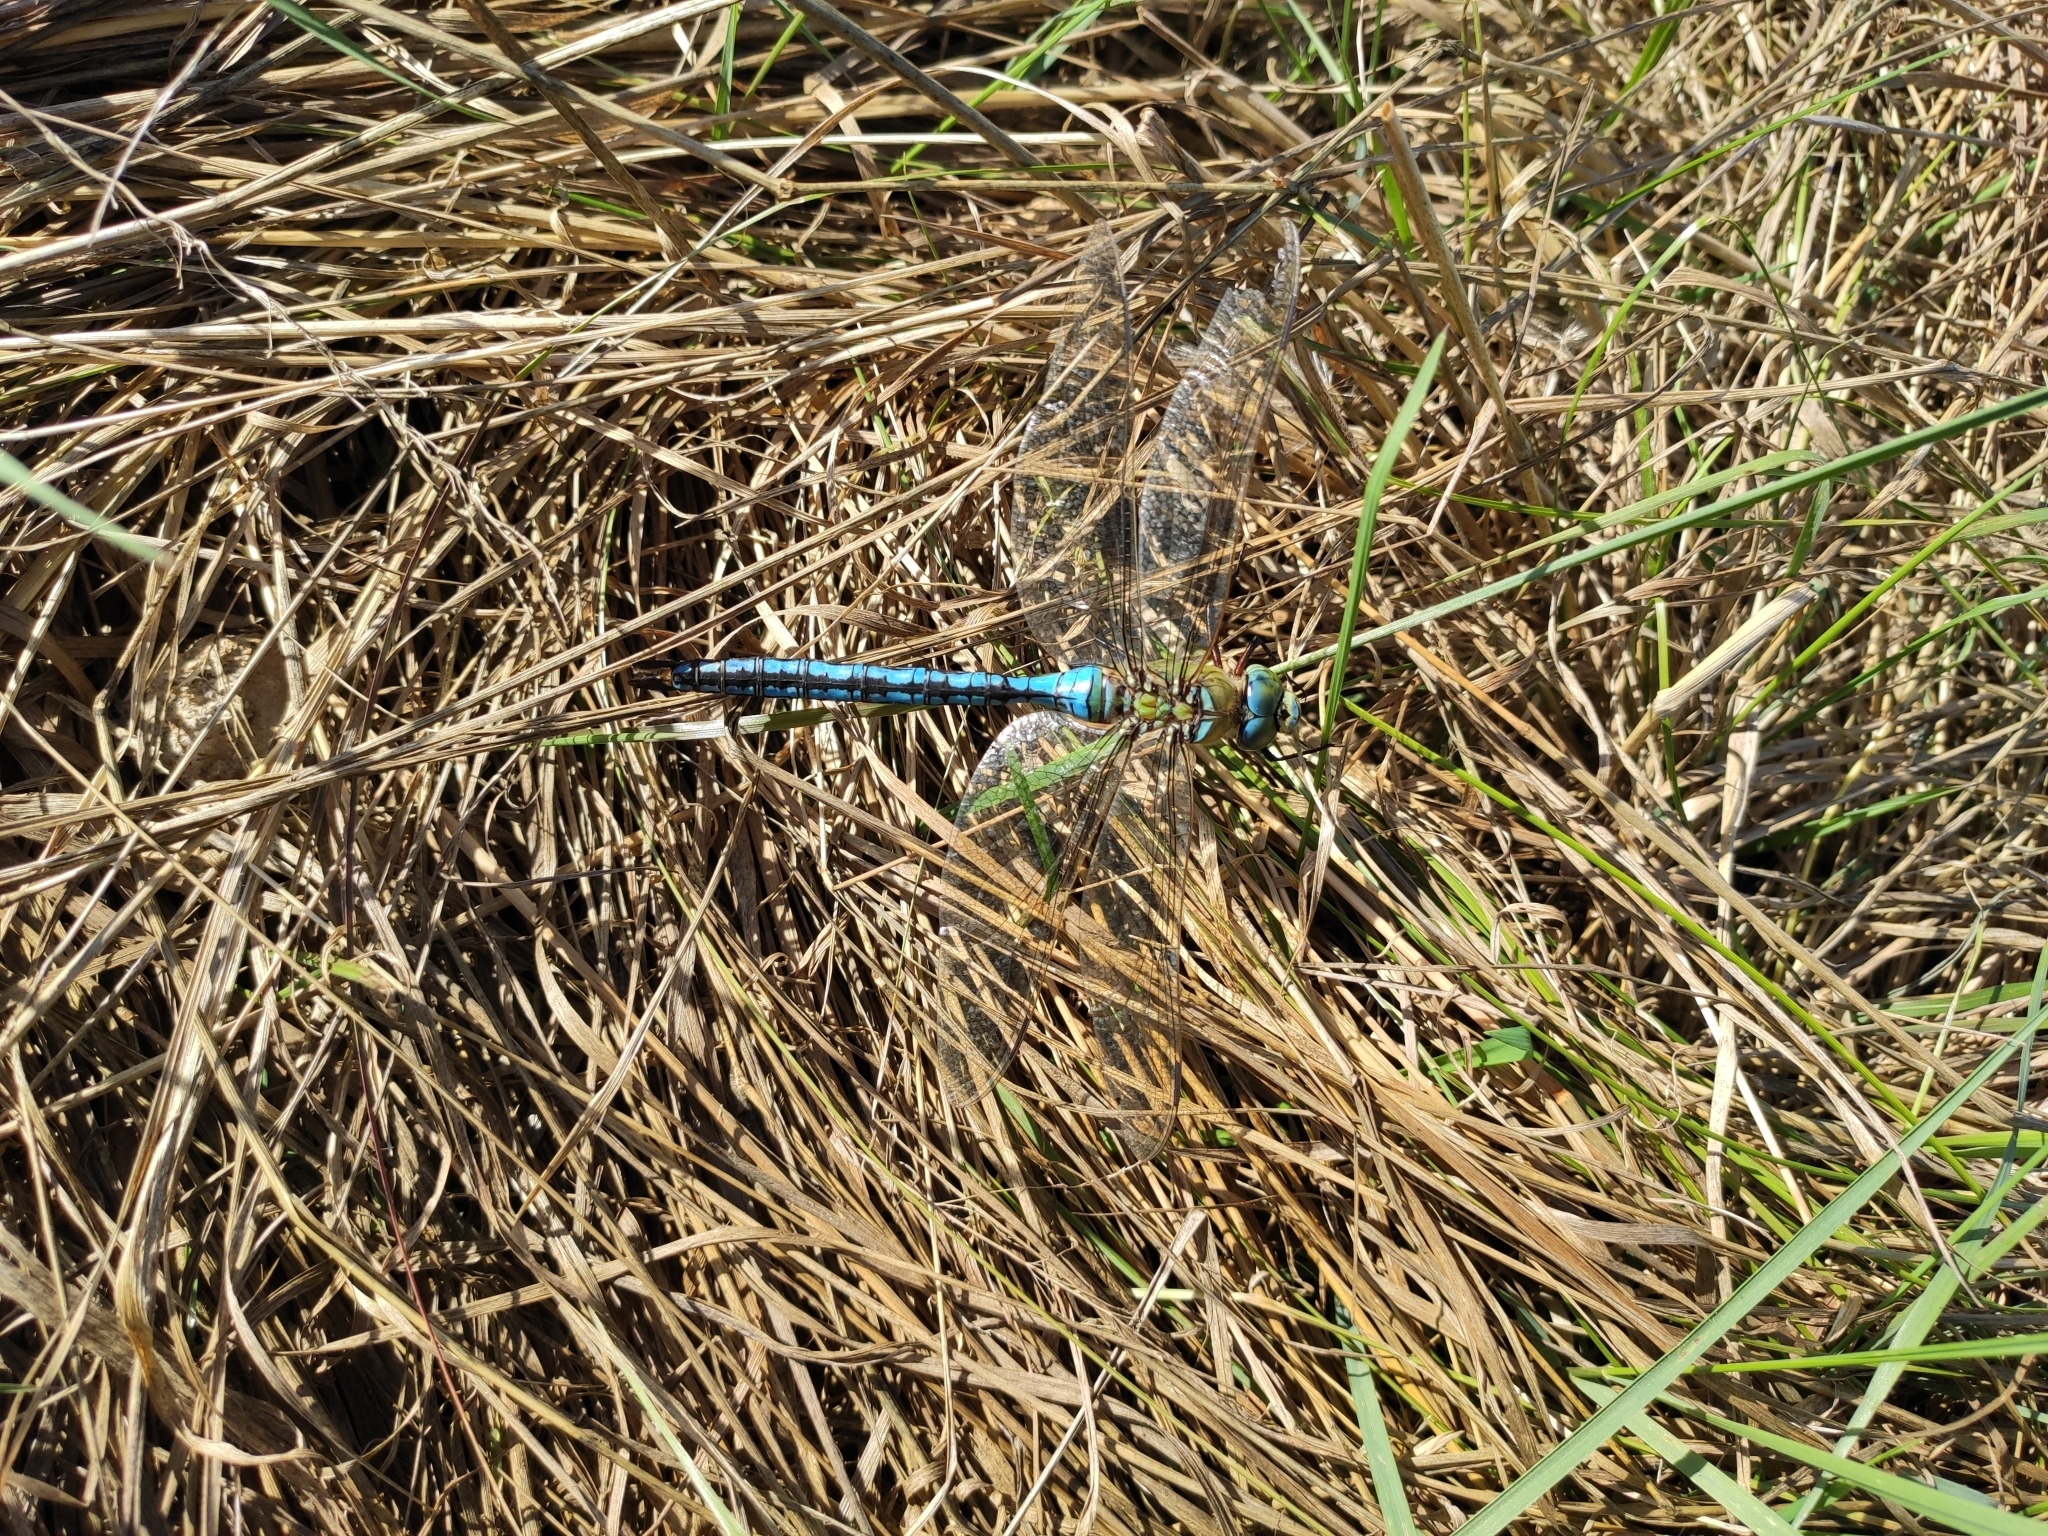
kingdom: Animalia
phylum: Arthropoda
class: Insecta
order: Odonata
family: Aeshnidae
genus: Anax
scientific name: Anax imperator
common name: Emperor dragonfly
